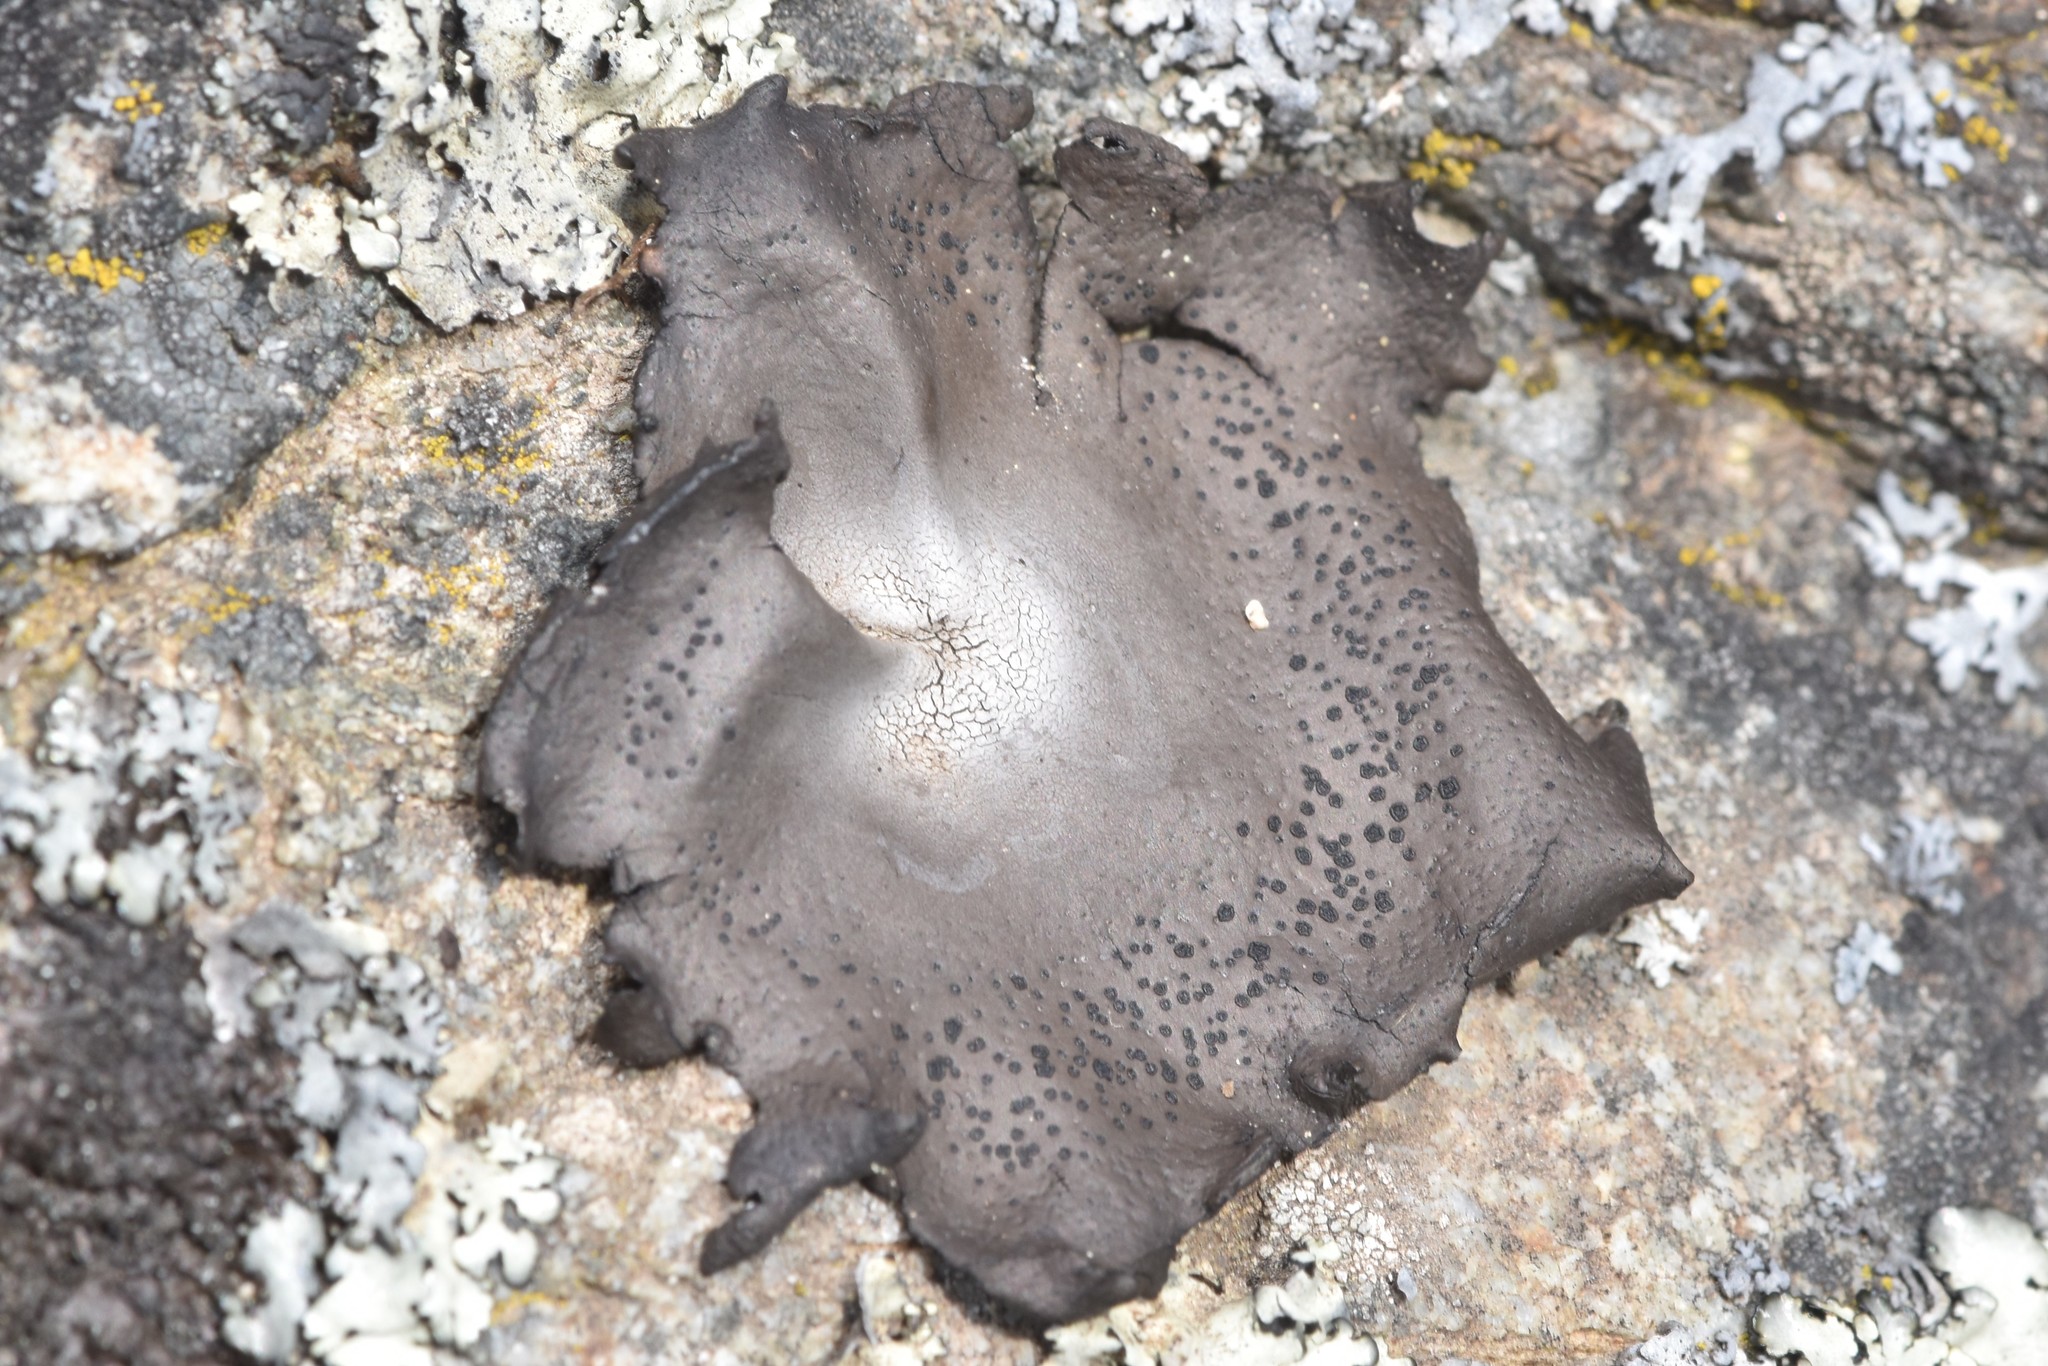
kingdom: Fungi
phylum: Ascomycota
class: Lecanoromycetes
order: Umbilicariales
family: Umbilicariaceae
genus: Umbilicaria
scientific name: Umbilicaria phaea
